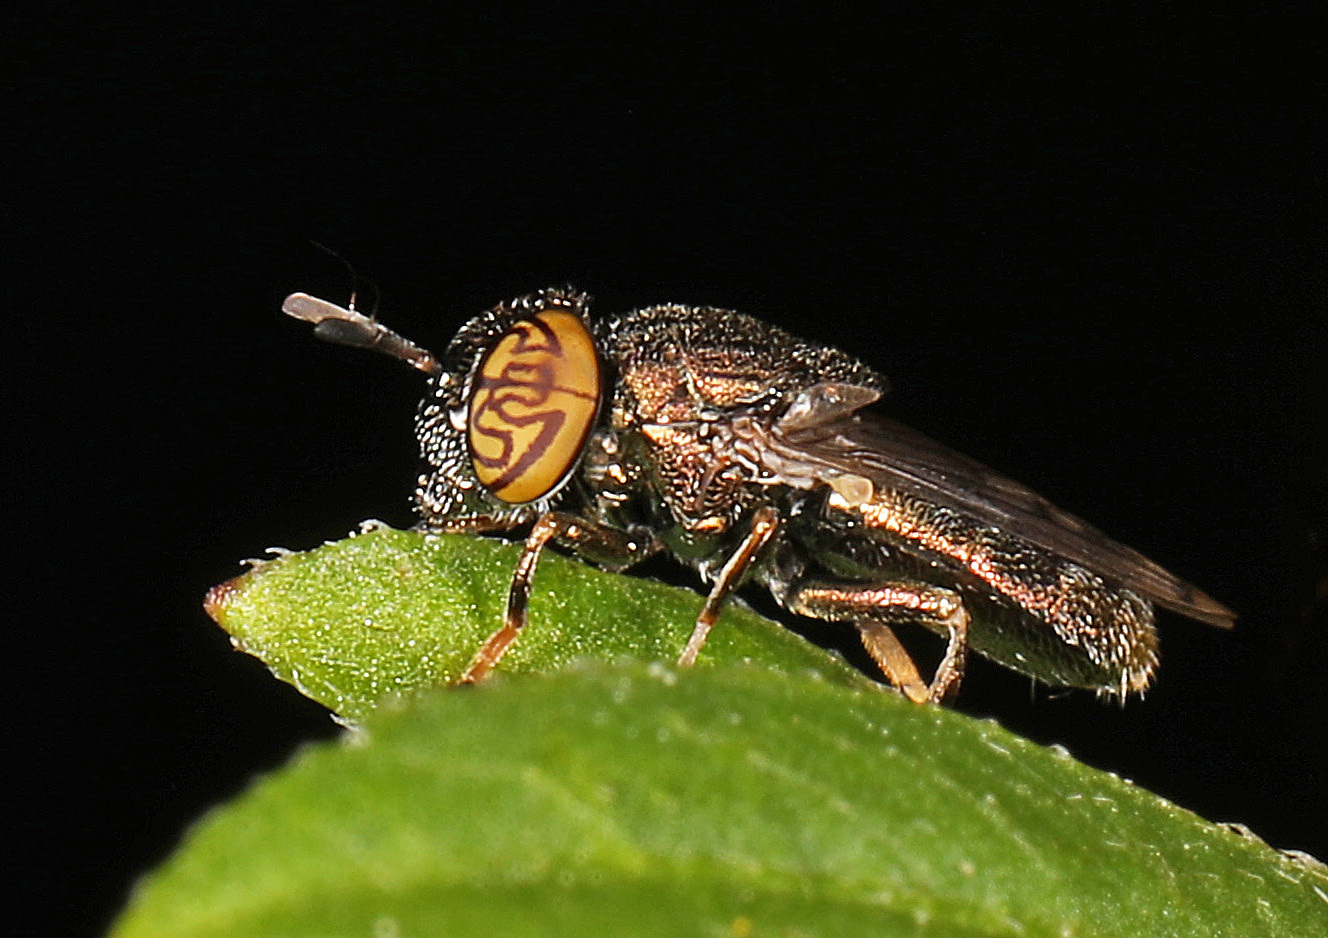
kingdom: Animalia
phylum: Arthropoda
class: Insecta
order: Diptera
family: Syrphidae
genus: Orthonevra
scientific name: Orthonevra nitida
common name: Wavy mucksucker
